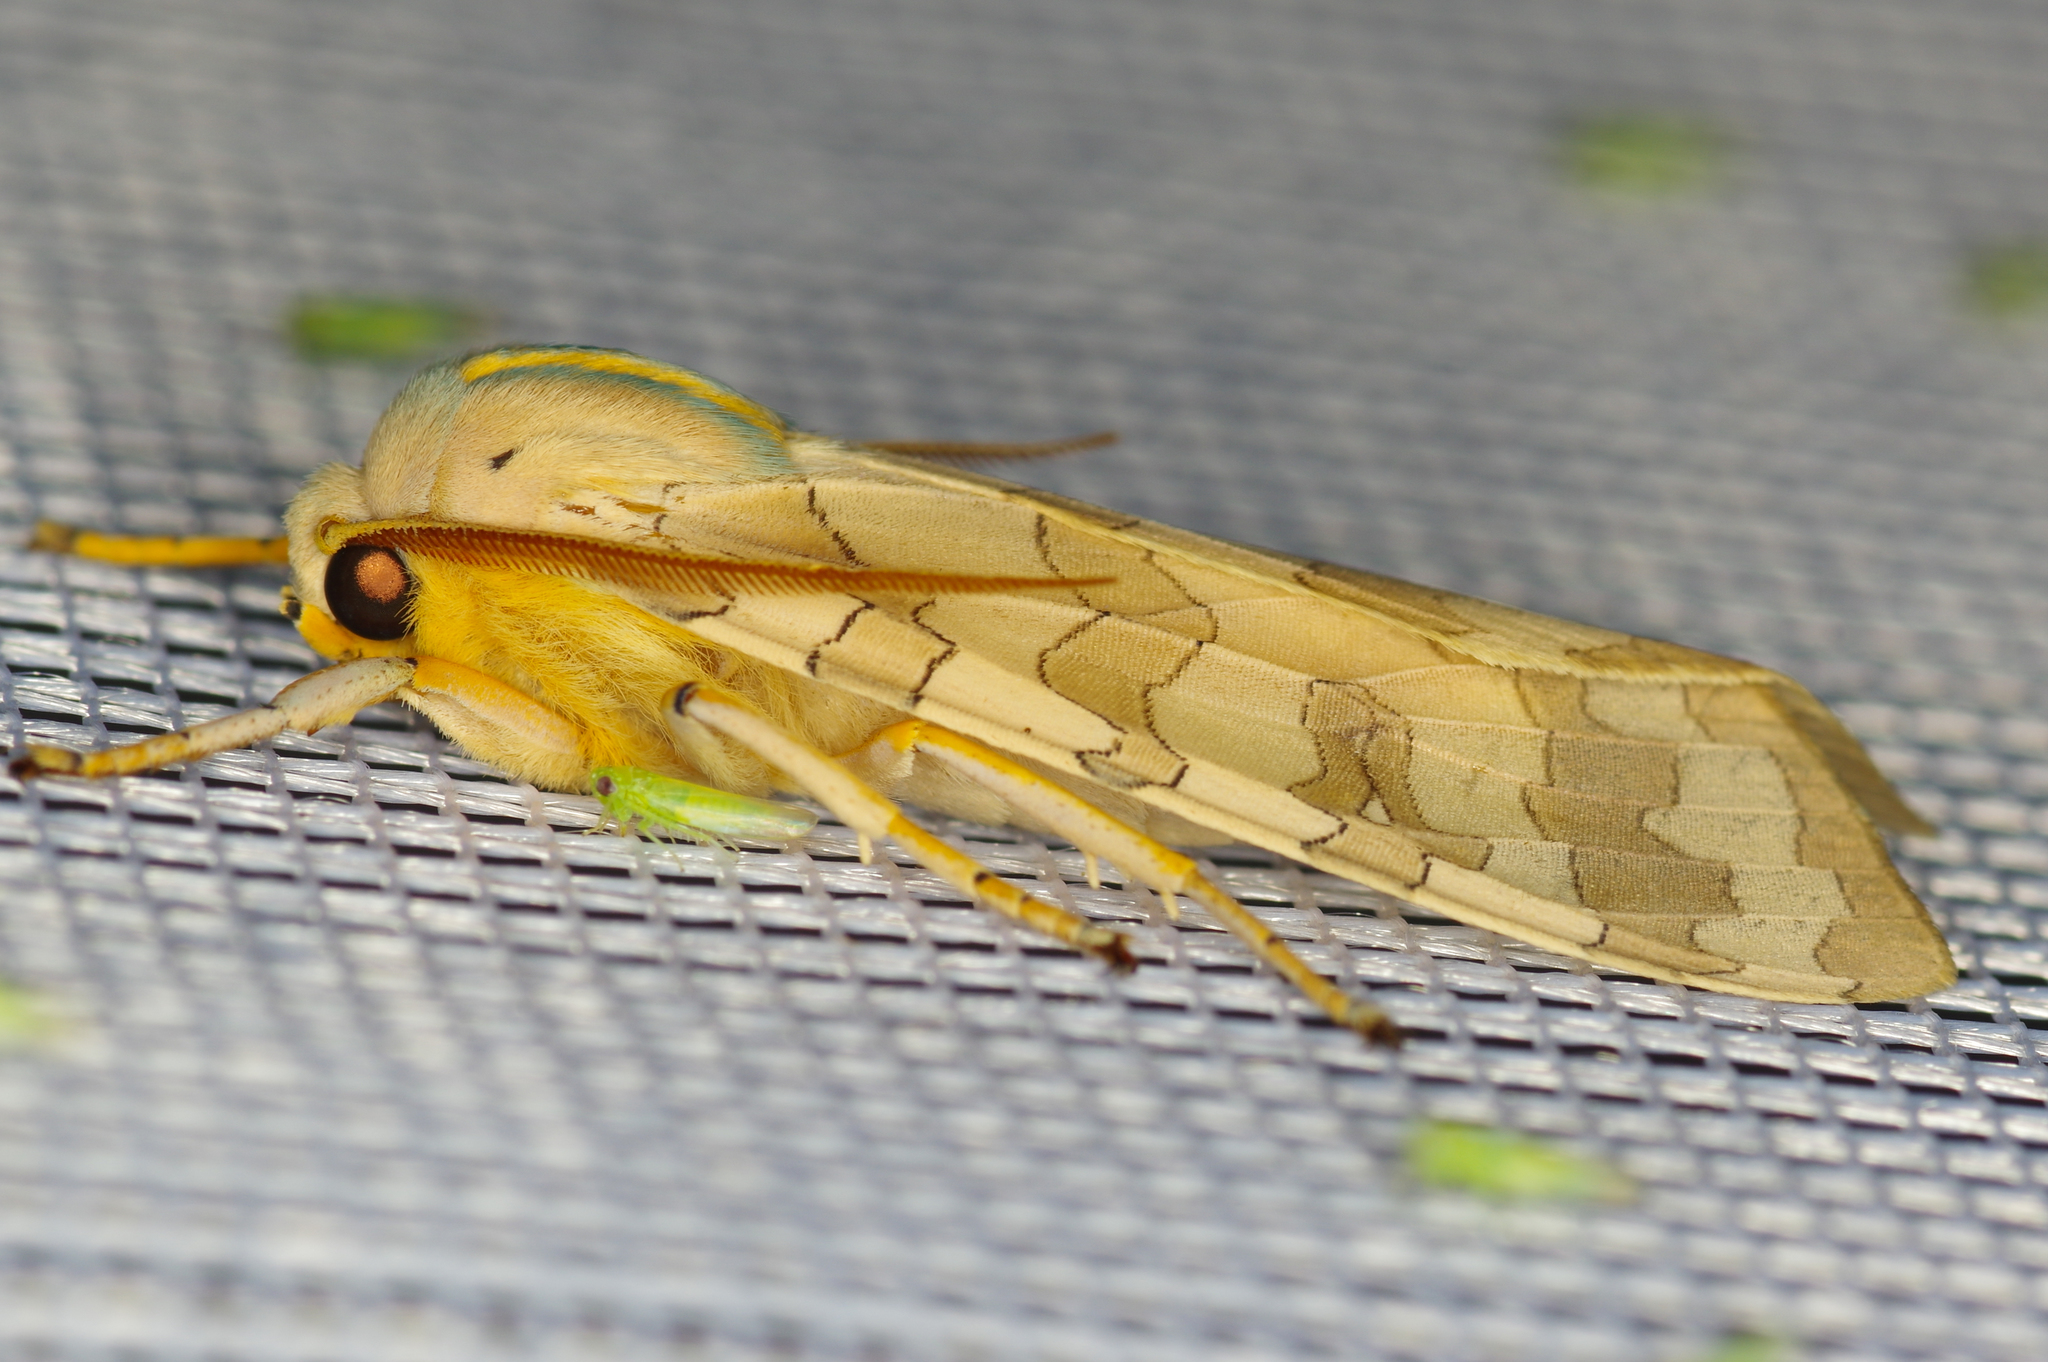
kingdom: Animalia
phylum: Arthropoda
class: Insecta
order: Lepidoptera
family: Erebidae
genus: Halysidota
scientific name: Halysidota
